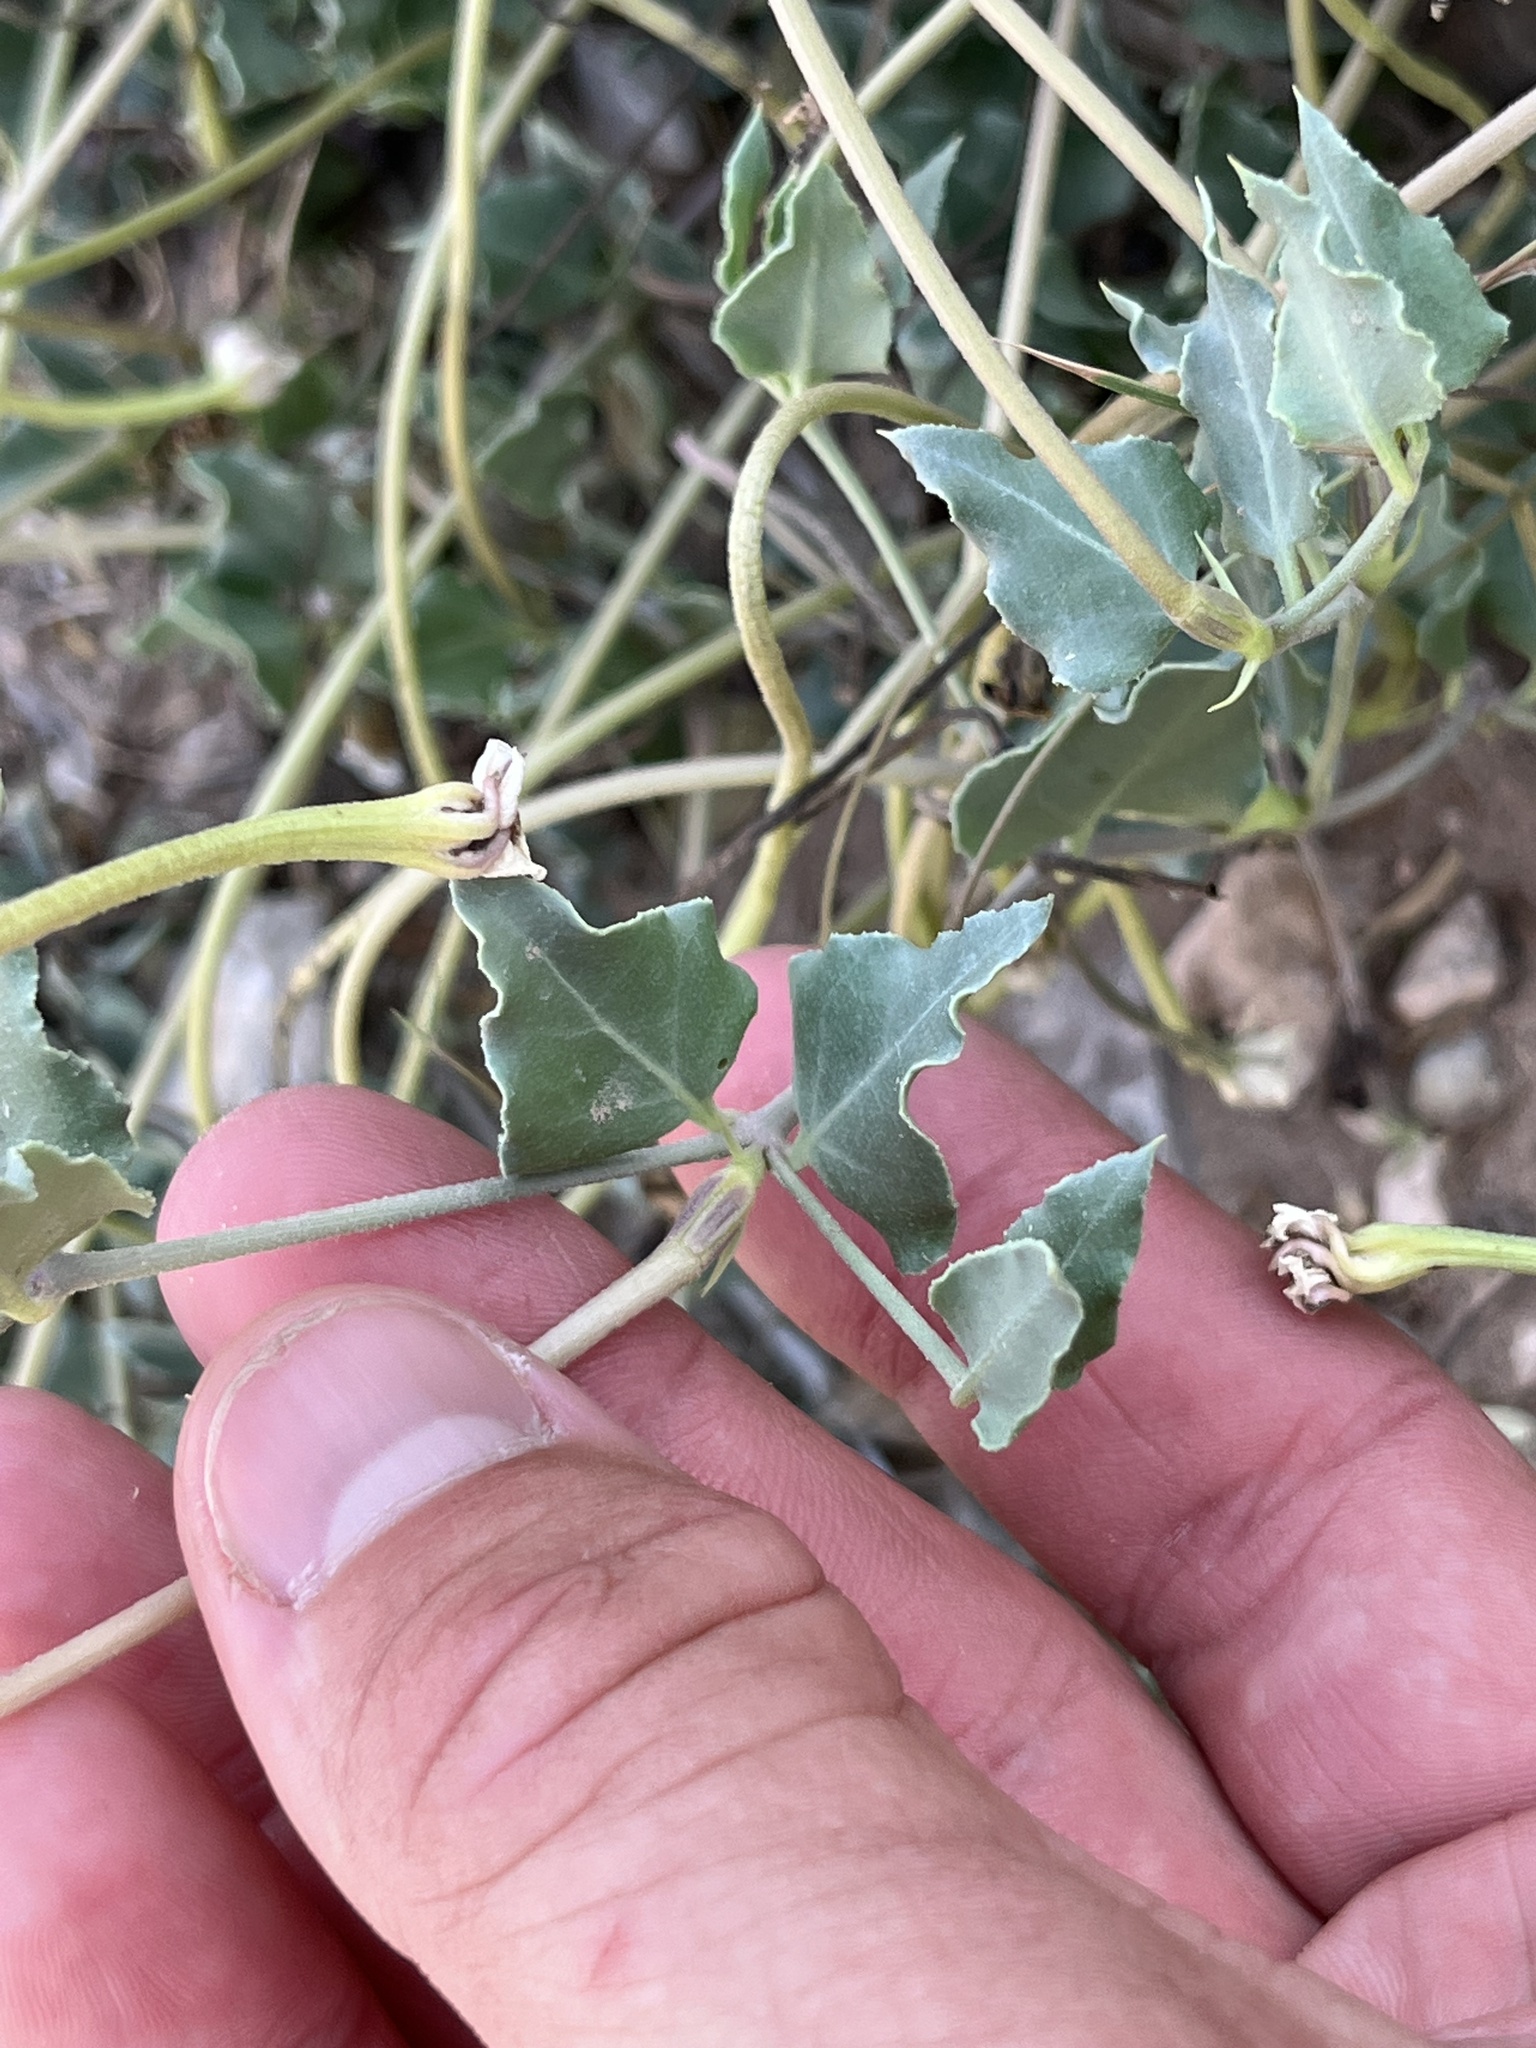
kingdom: Plantae
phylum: Tracheophyta
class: Magnoliopsida
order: Caryophyllales
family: Nyctaginaceae
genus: Acleisanthes
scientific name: Acleisanthes longiflora
